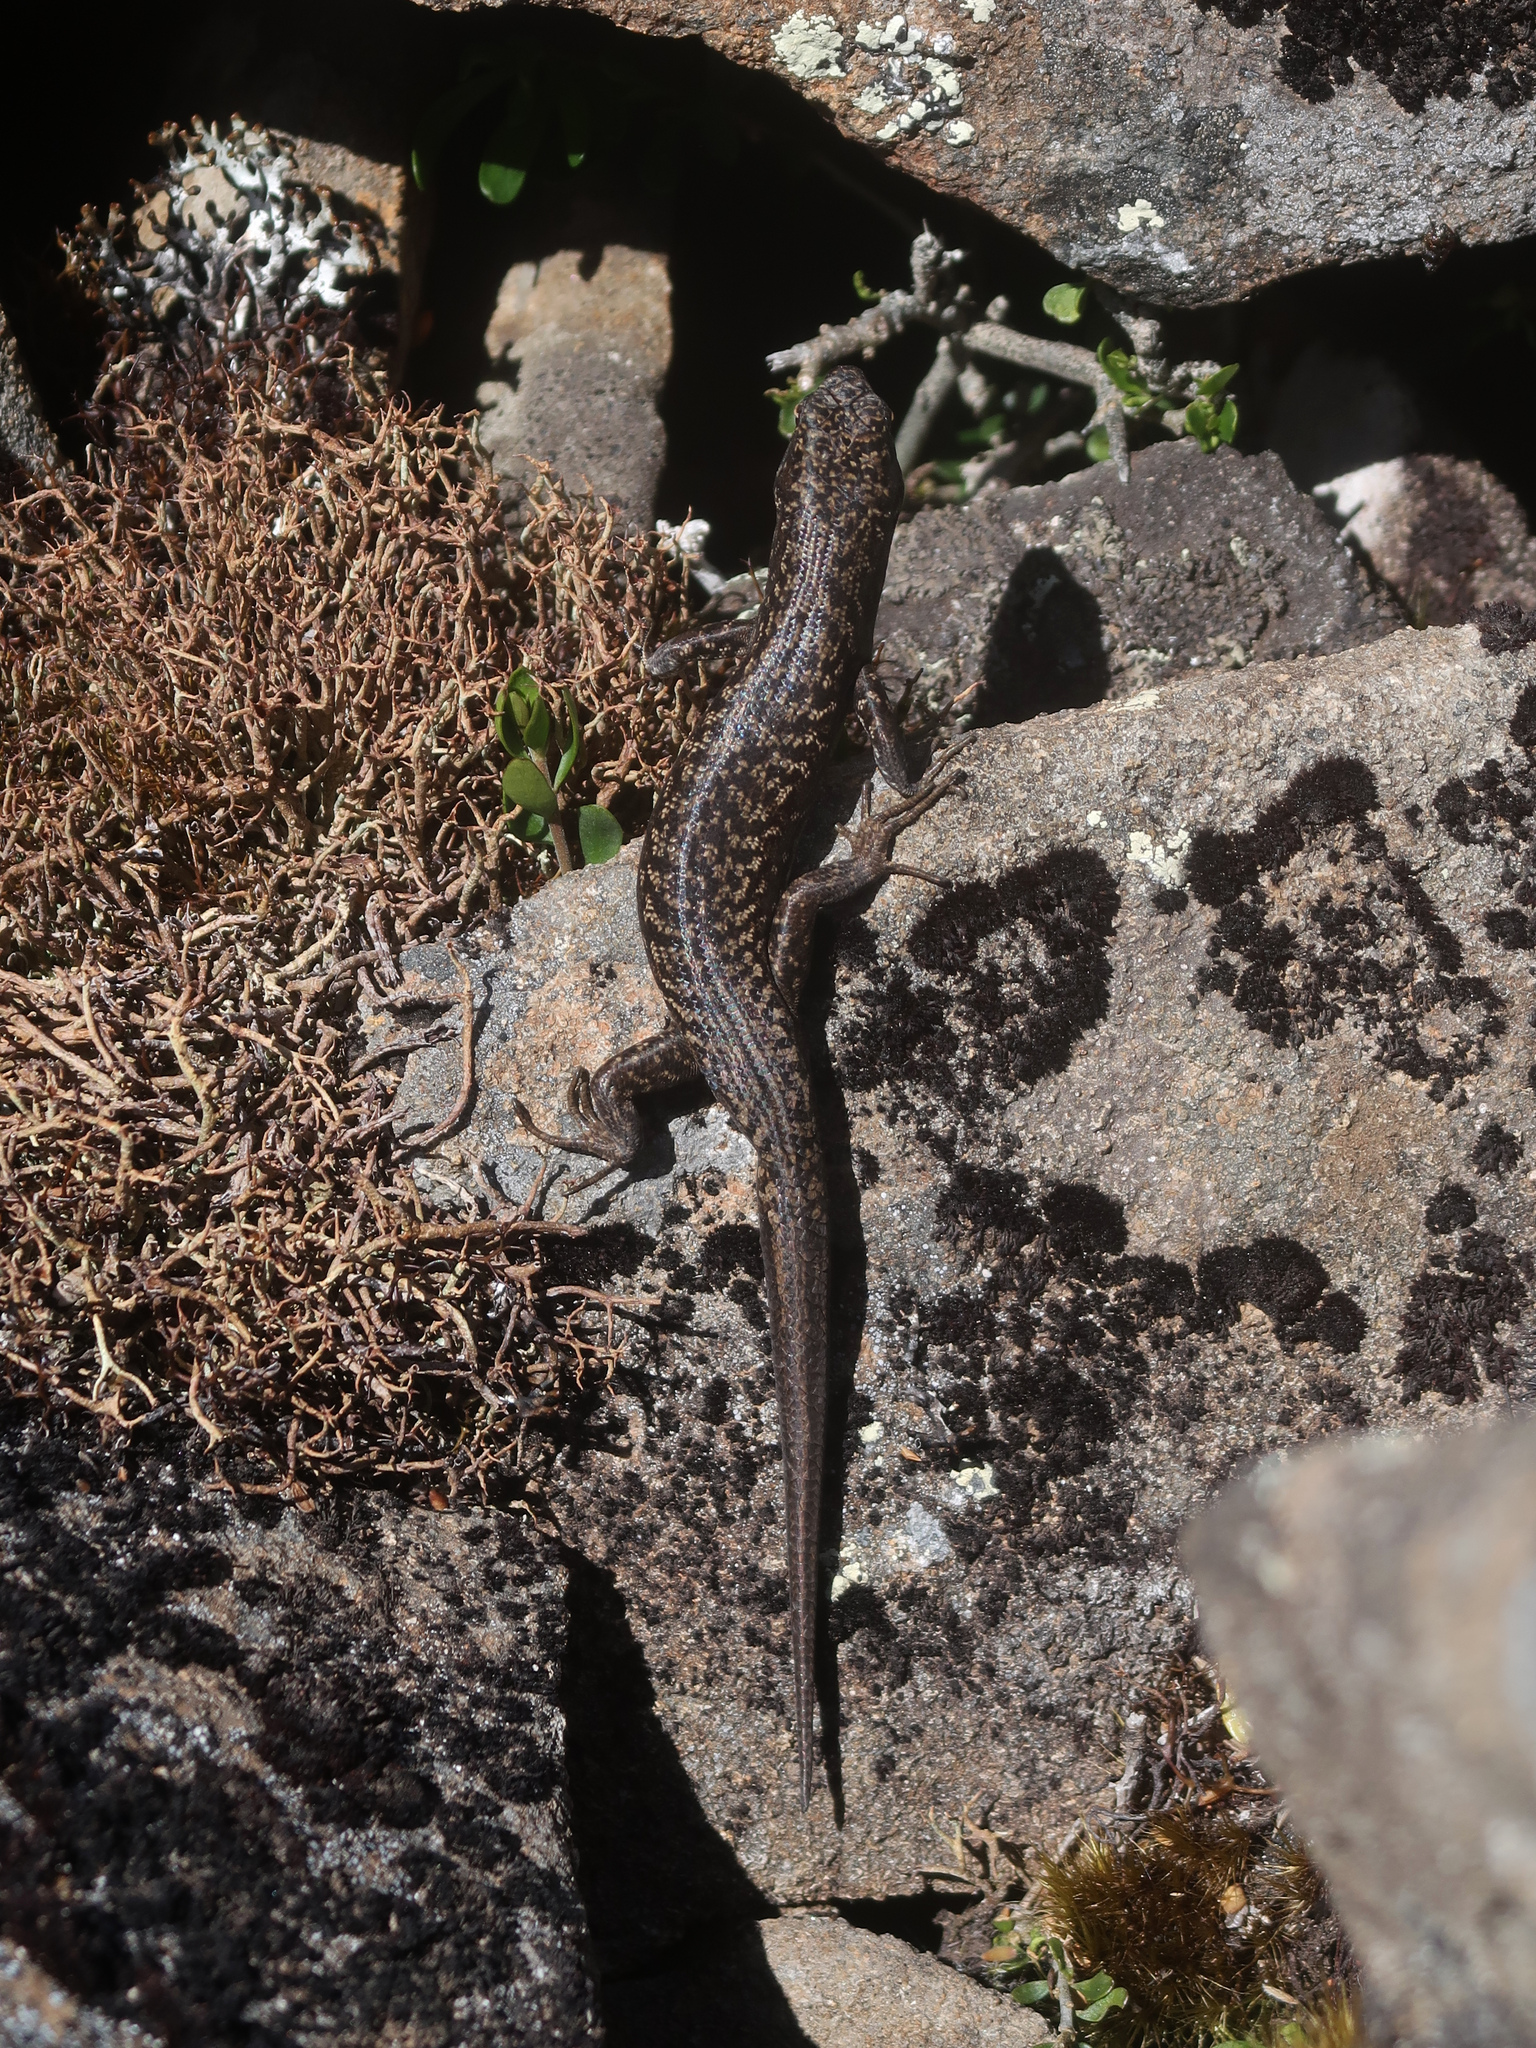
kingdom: Animalia
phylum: Chordata
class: Squamata
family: Scincidae
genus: Carinascincus
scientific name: Carinascincus ocellatus
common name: Ocellated cool-skink
